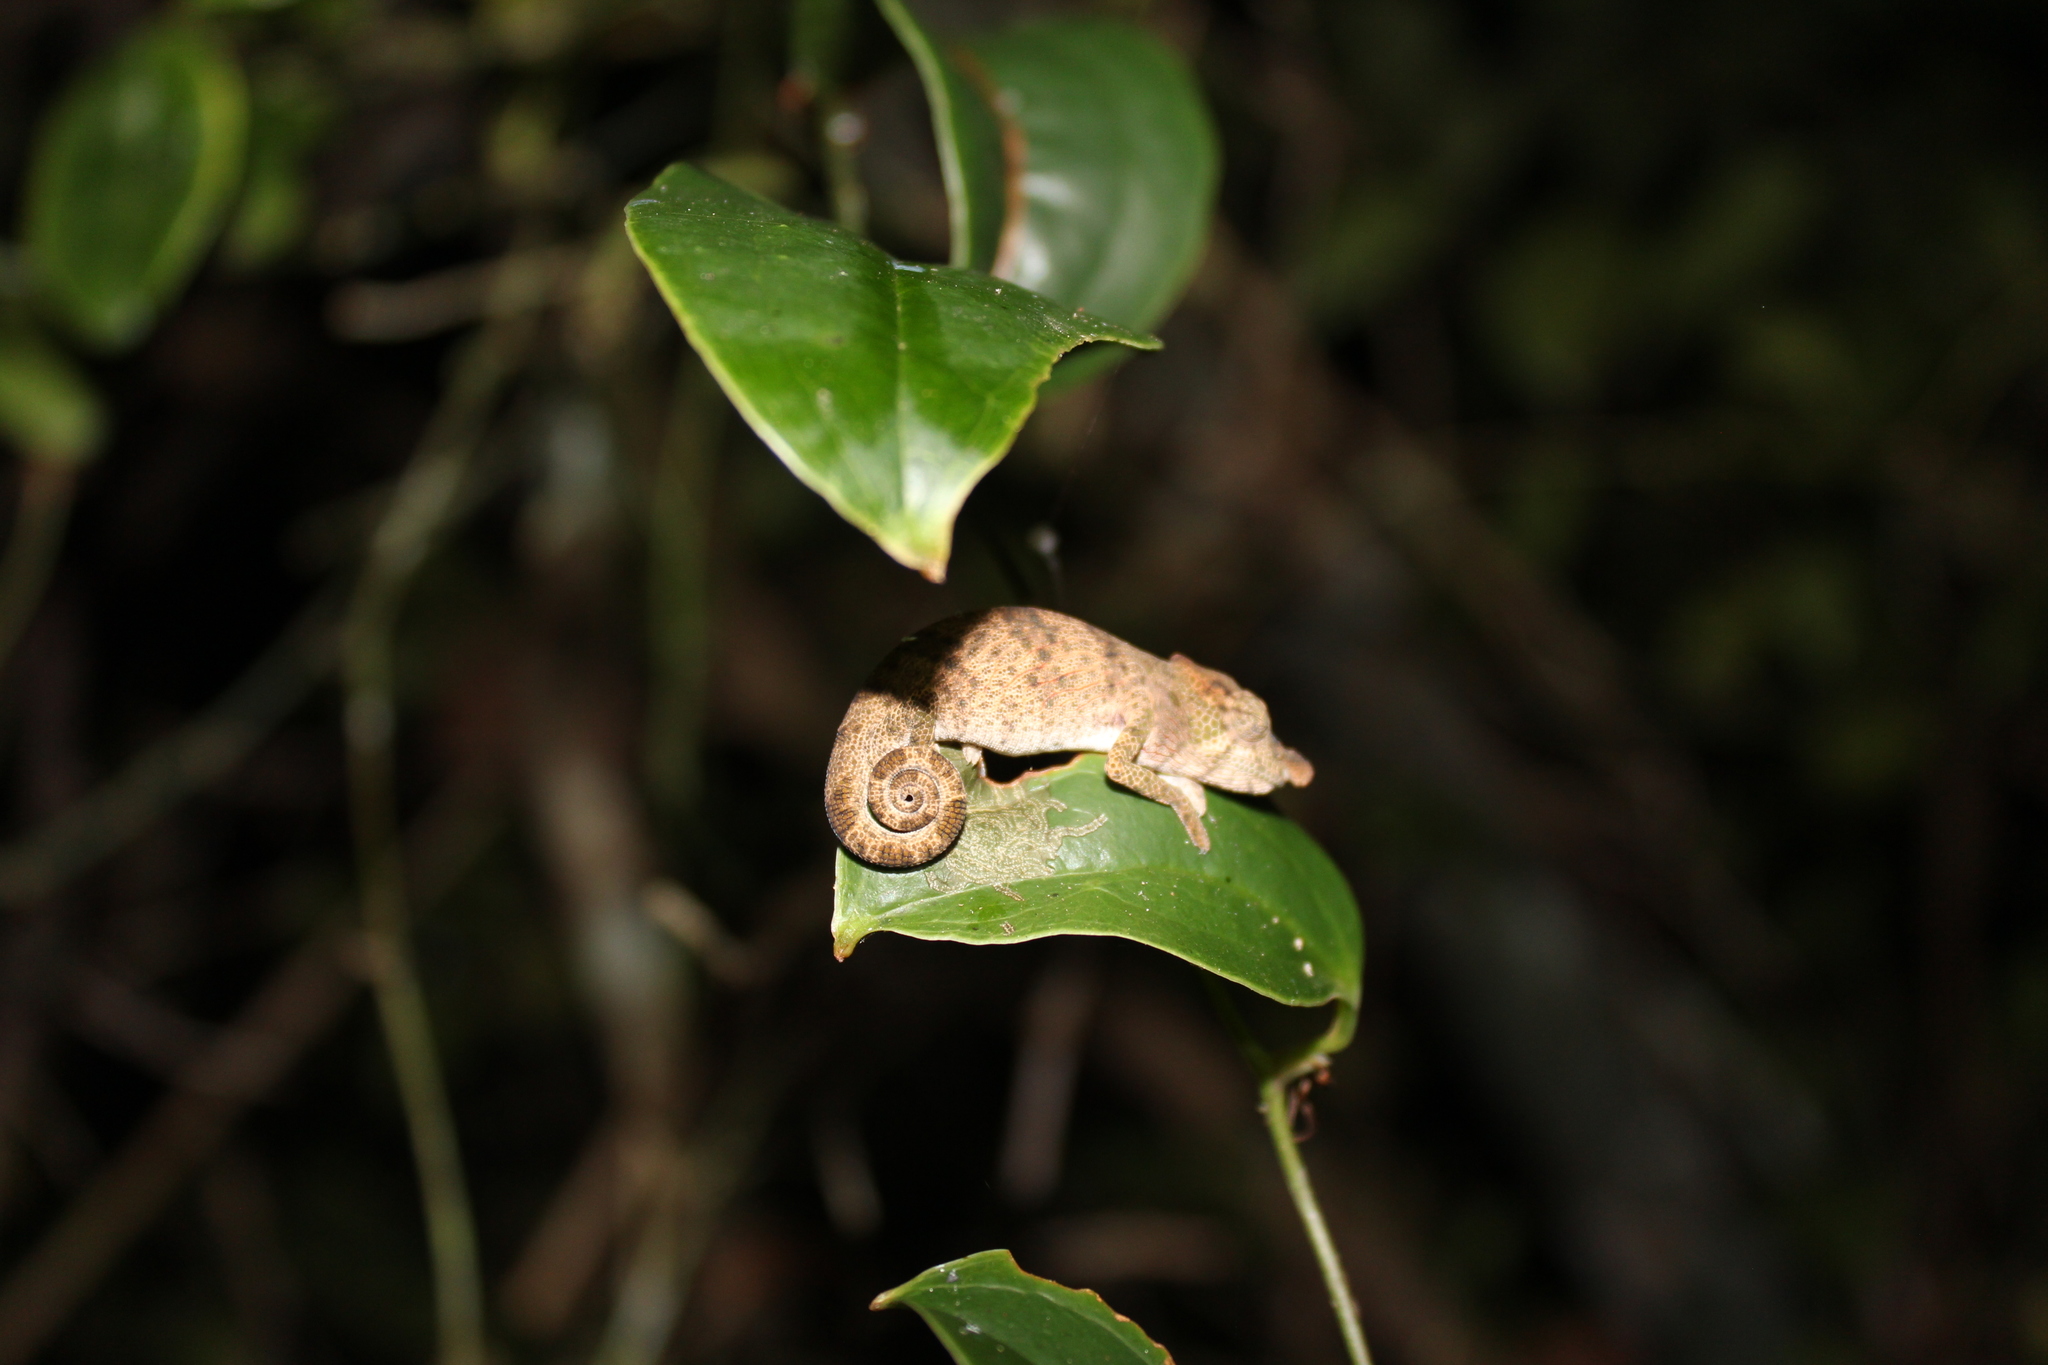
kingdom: Animalia
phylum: Chordata
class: Squamata
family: Chamaeleonidae
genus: Calumma
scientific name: Calumma nasutum
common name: Nose-horned chameleon
